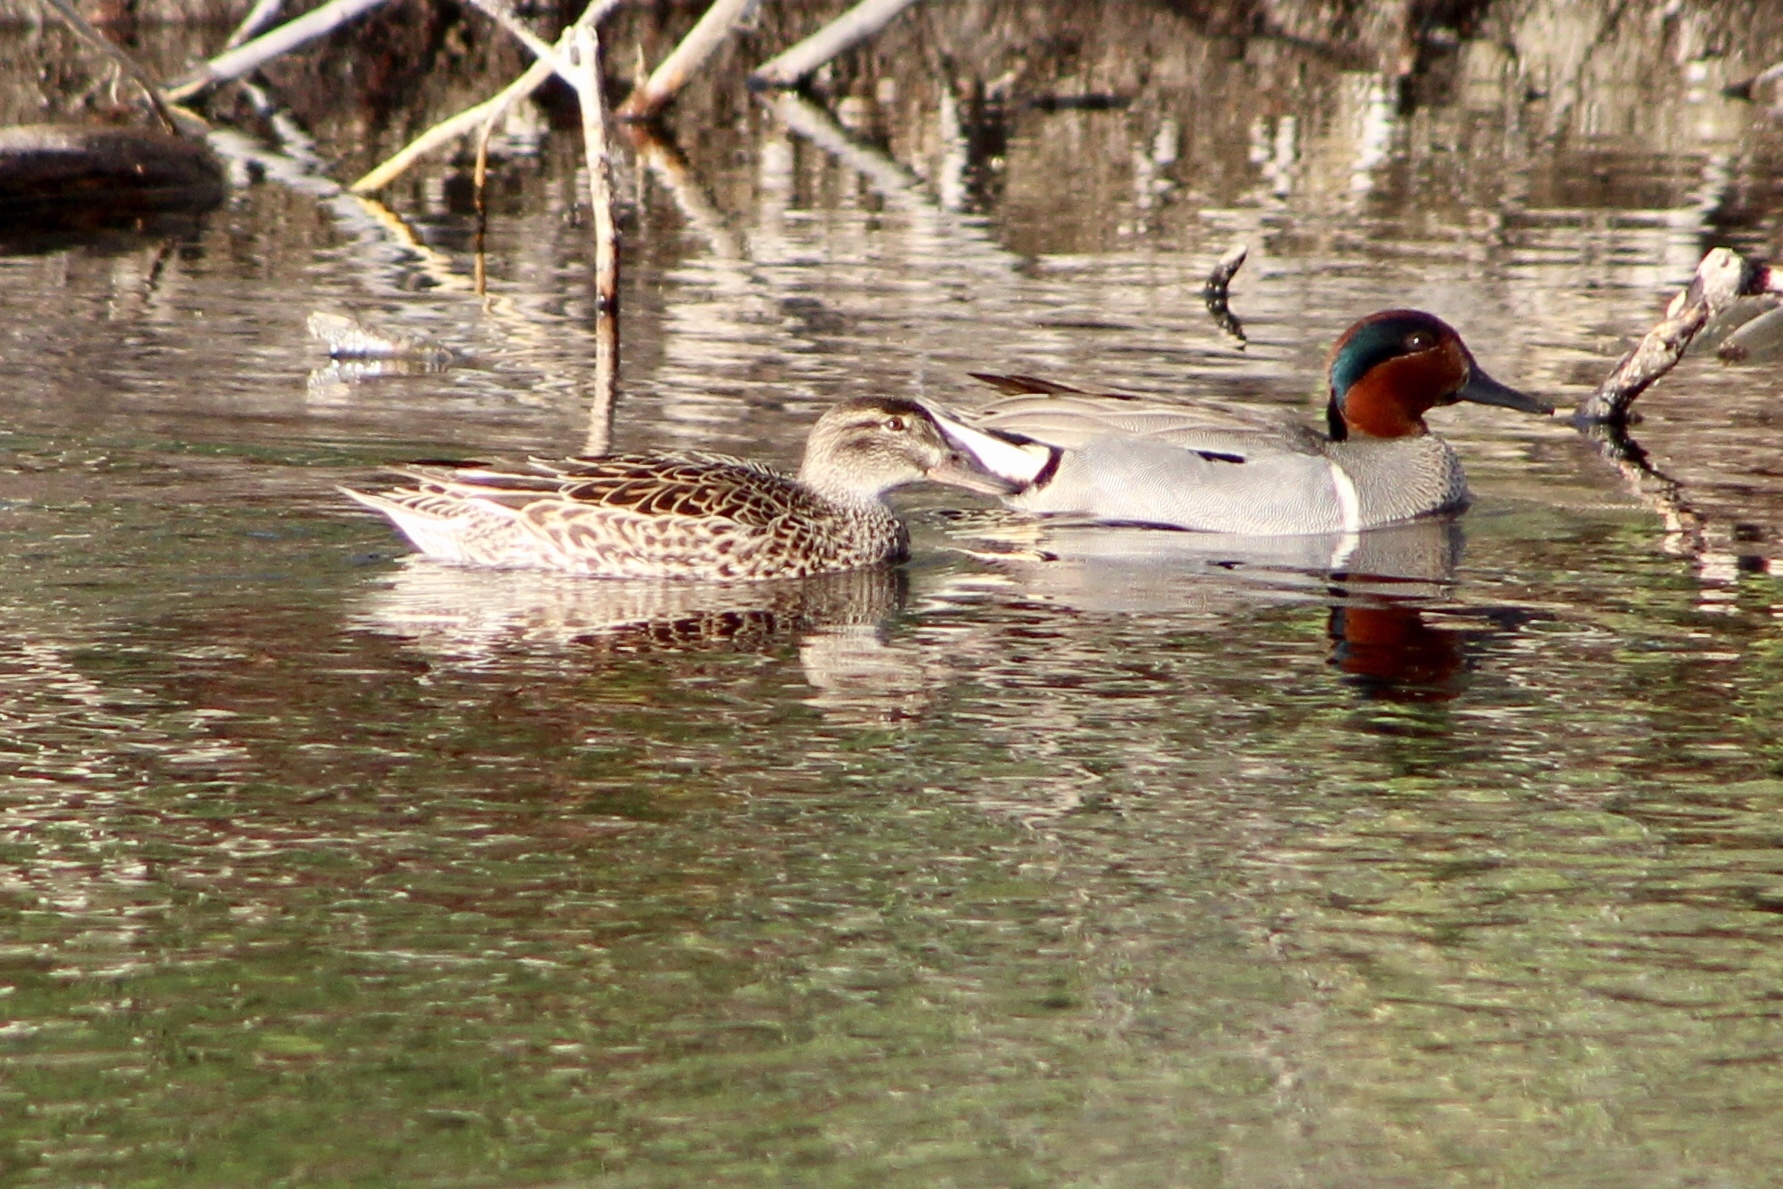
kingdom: Animalia
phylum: Chordata
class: Aves
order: Anseriformes
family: Anatidae
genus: Anas
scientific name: Anas crecca
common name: Eurasian teal
